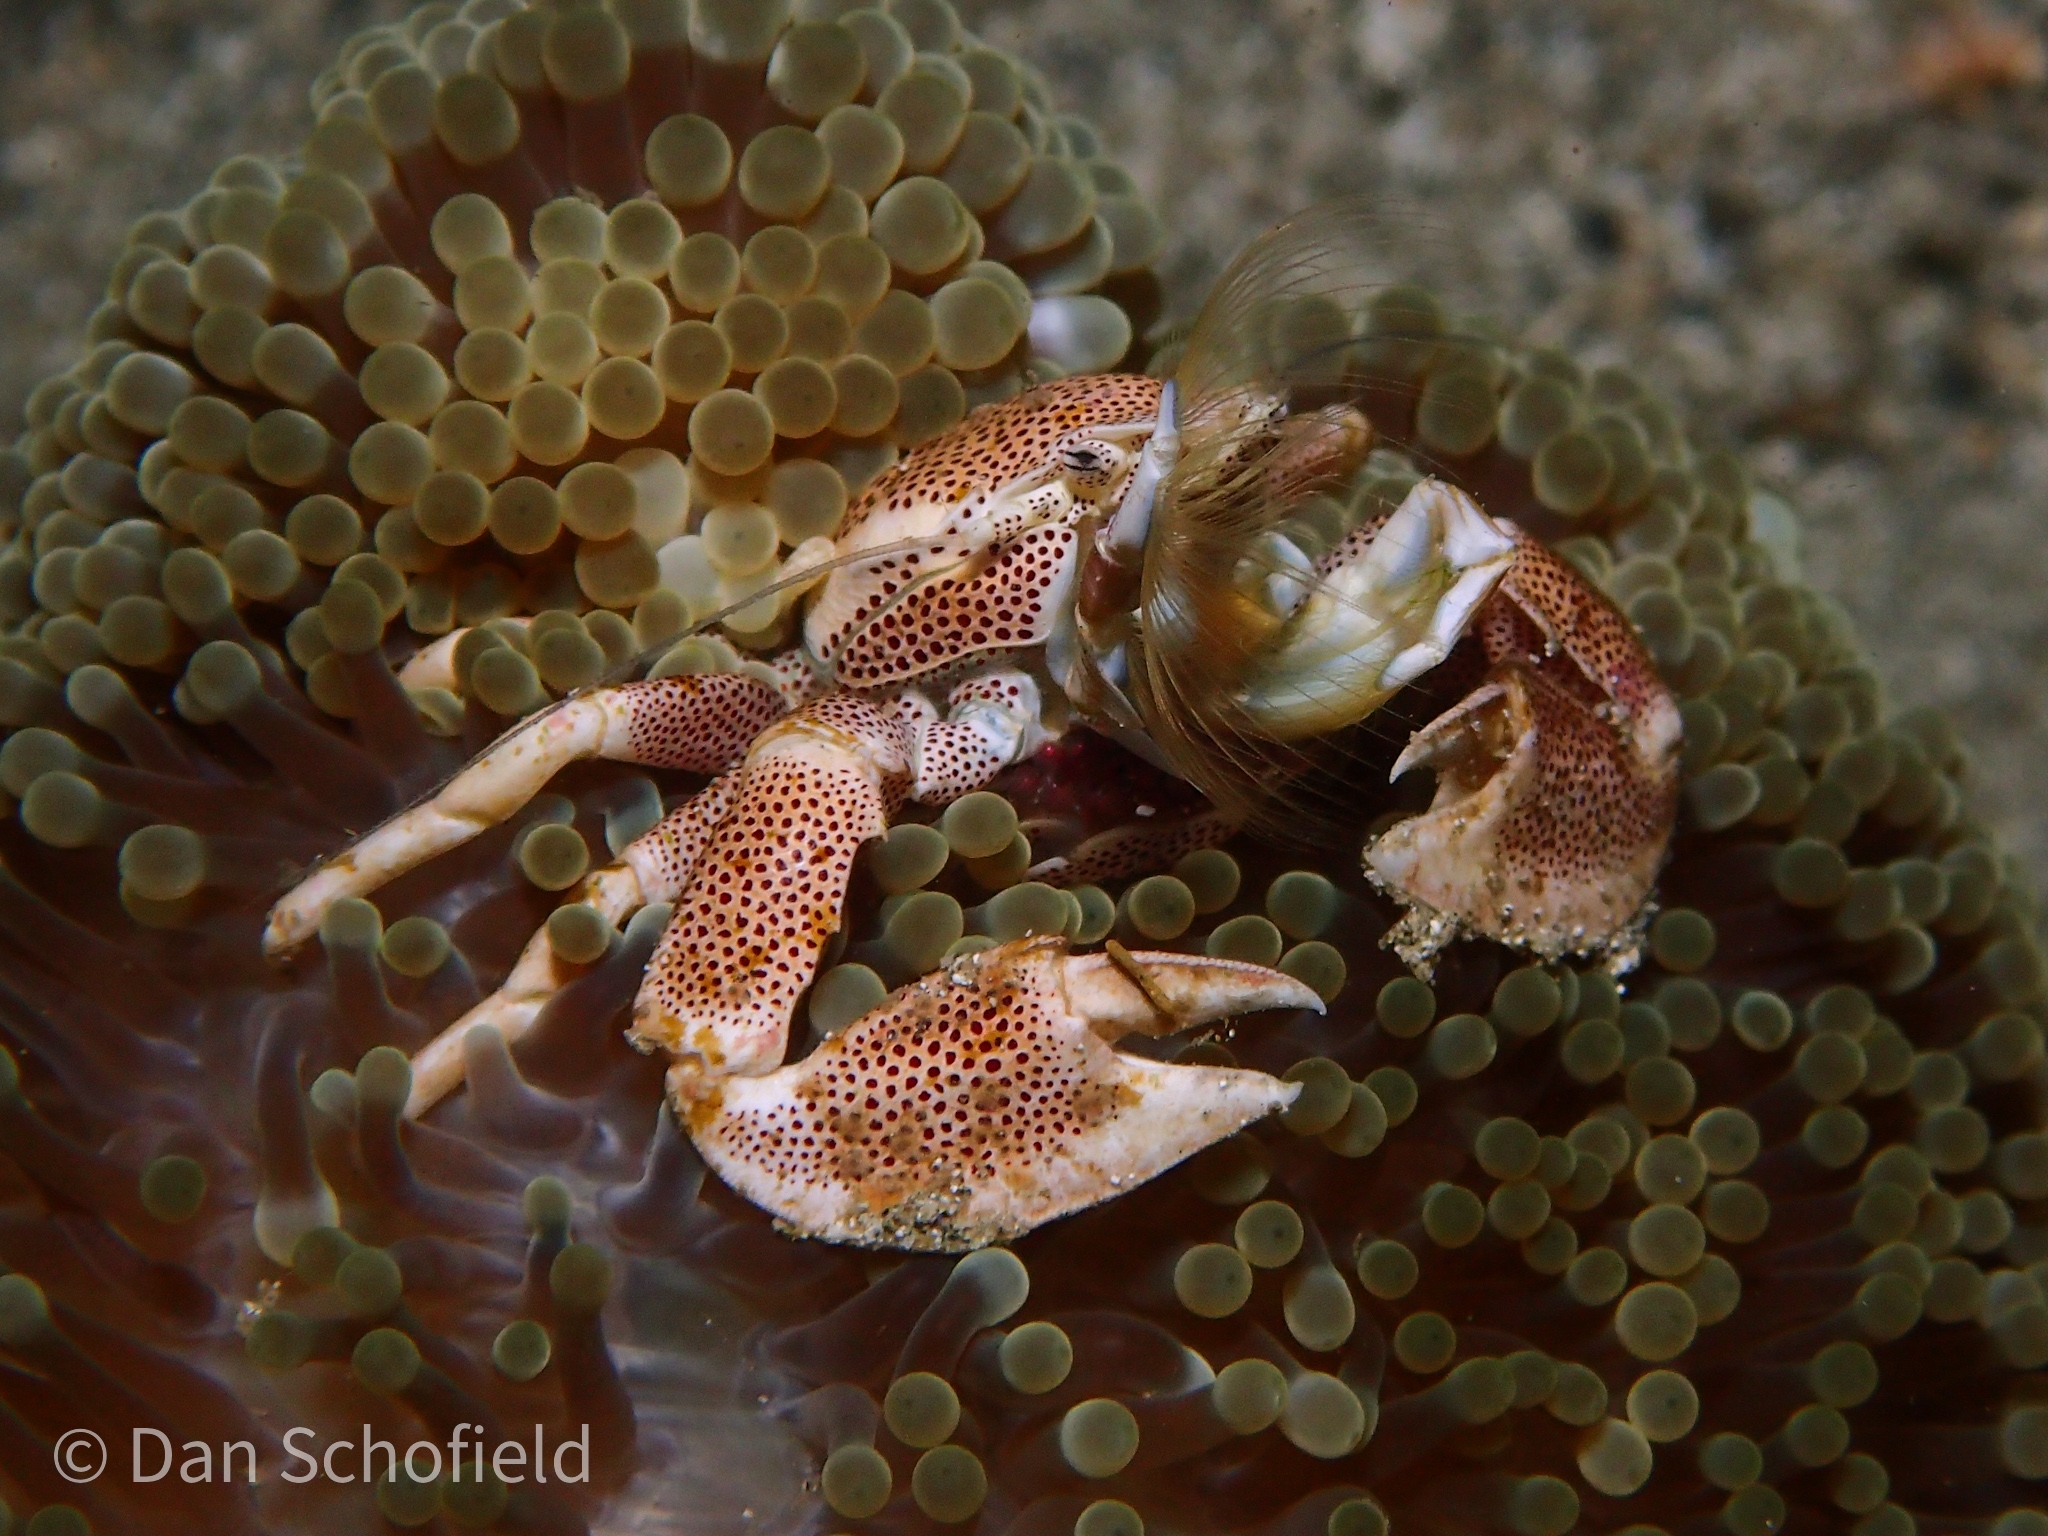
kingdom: Animalia
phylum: Arthropoda
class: Malacostraca
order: Decapoda
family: Porcellanidae
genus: Neopetrolisthes
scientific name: Neopetrolisthes maculatus
